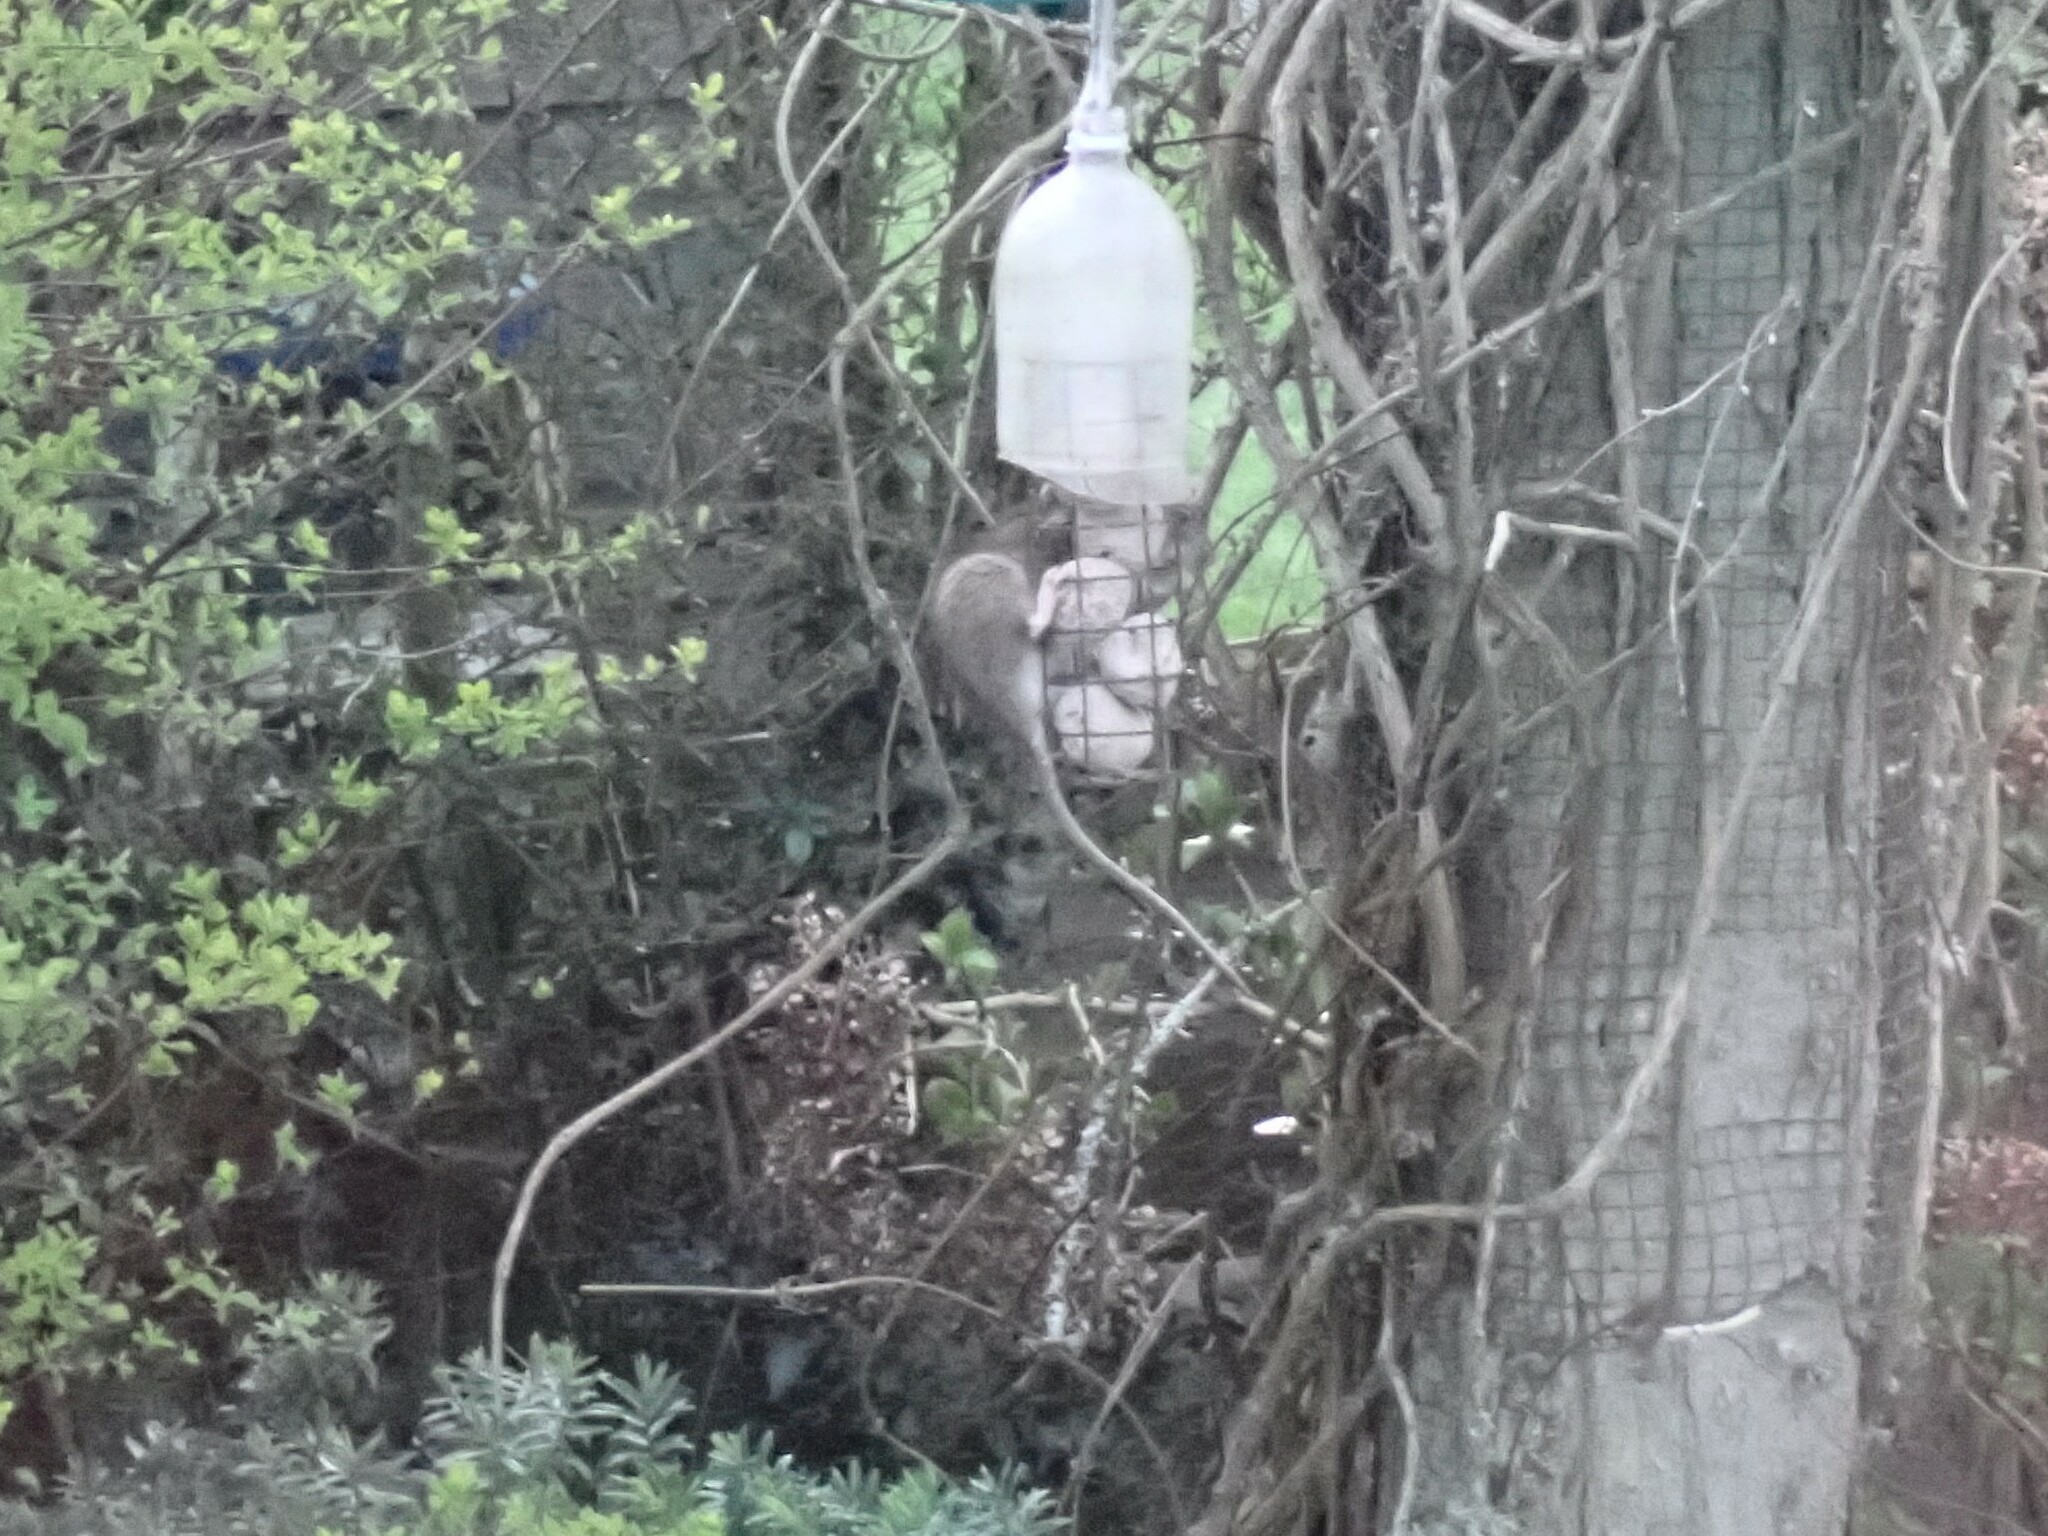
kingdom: Animalia
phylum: Chordata
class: Mammalia
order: Rodentia
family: Muridae
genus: Rattus
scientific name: Rattus norvegicus
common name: Brown rat
